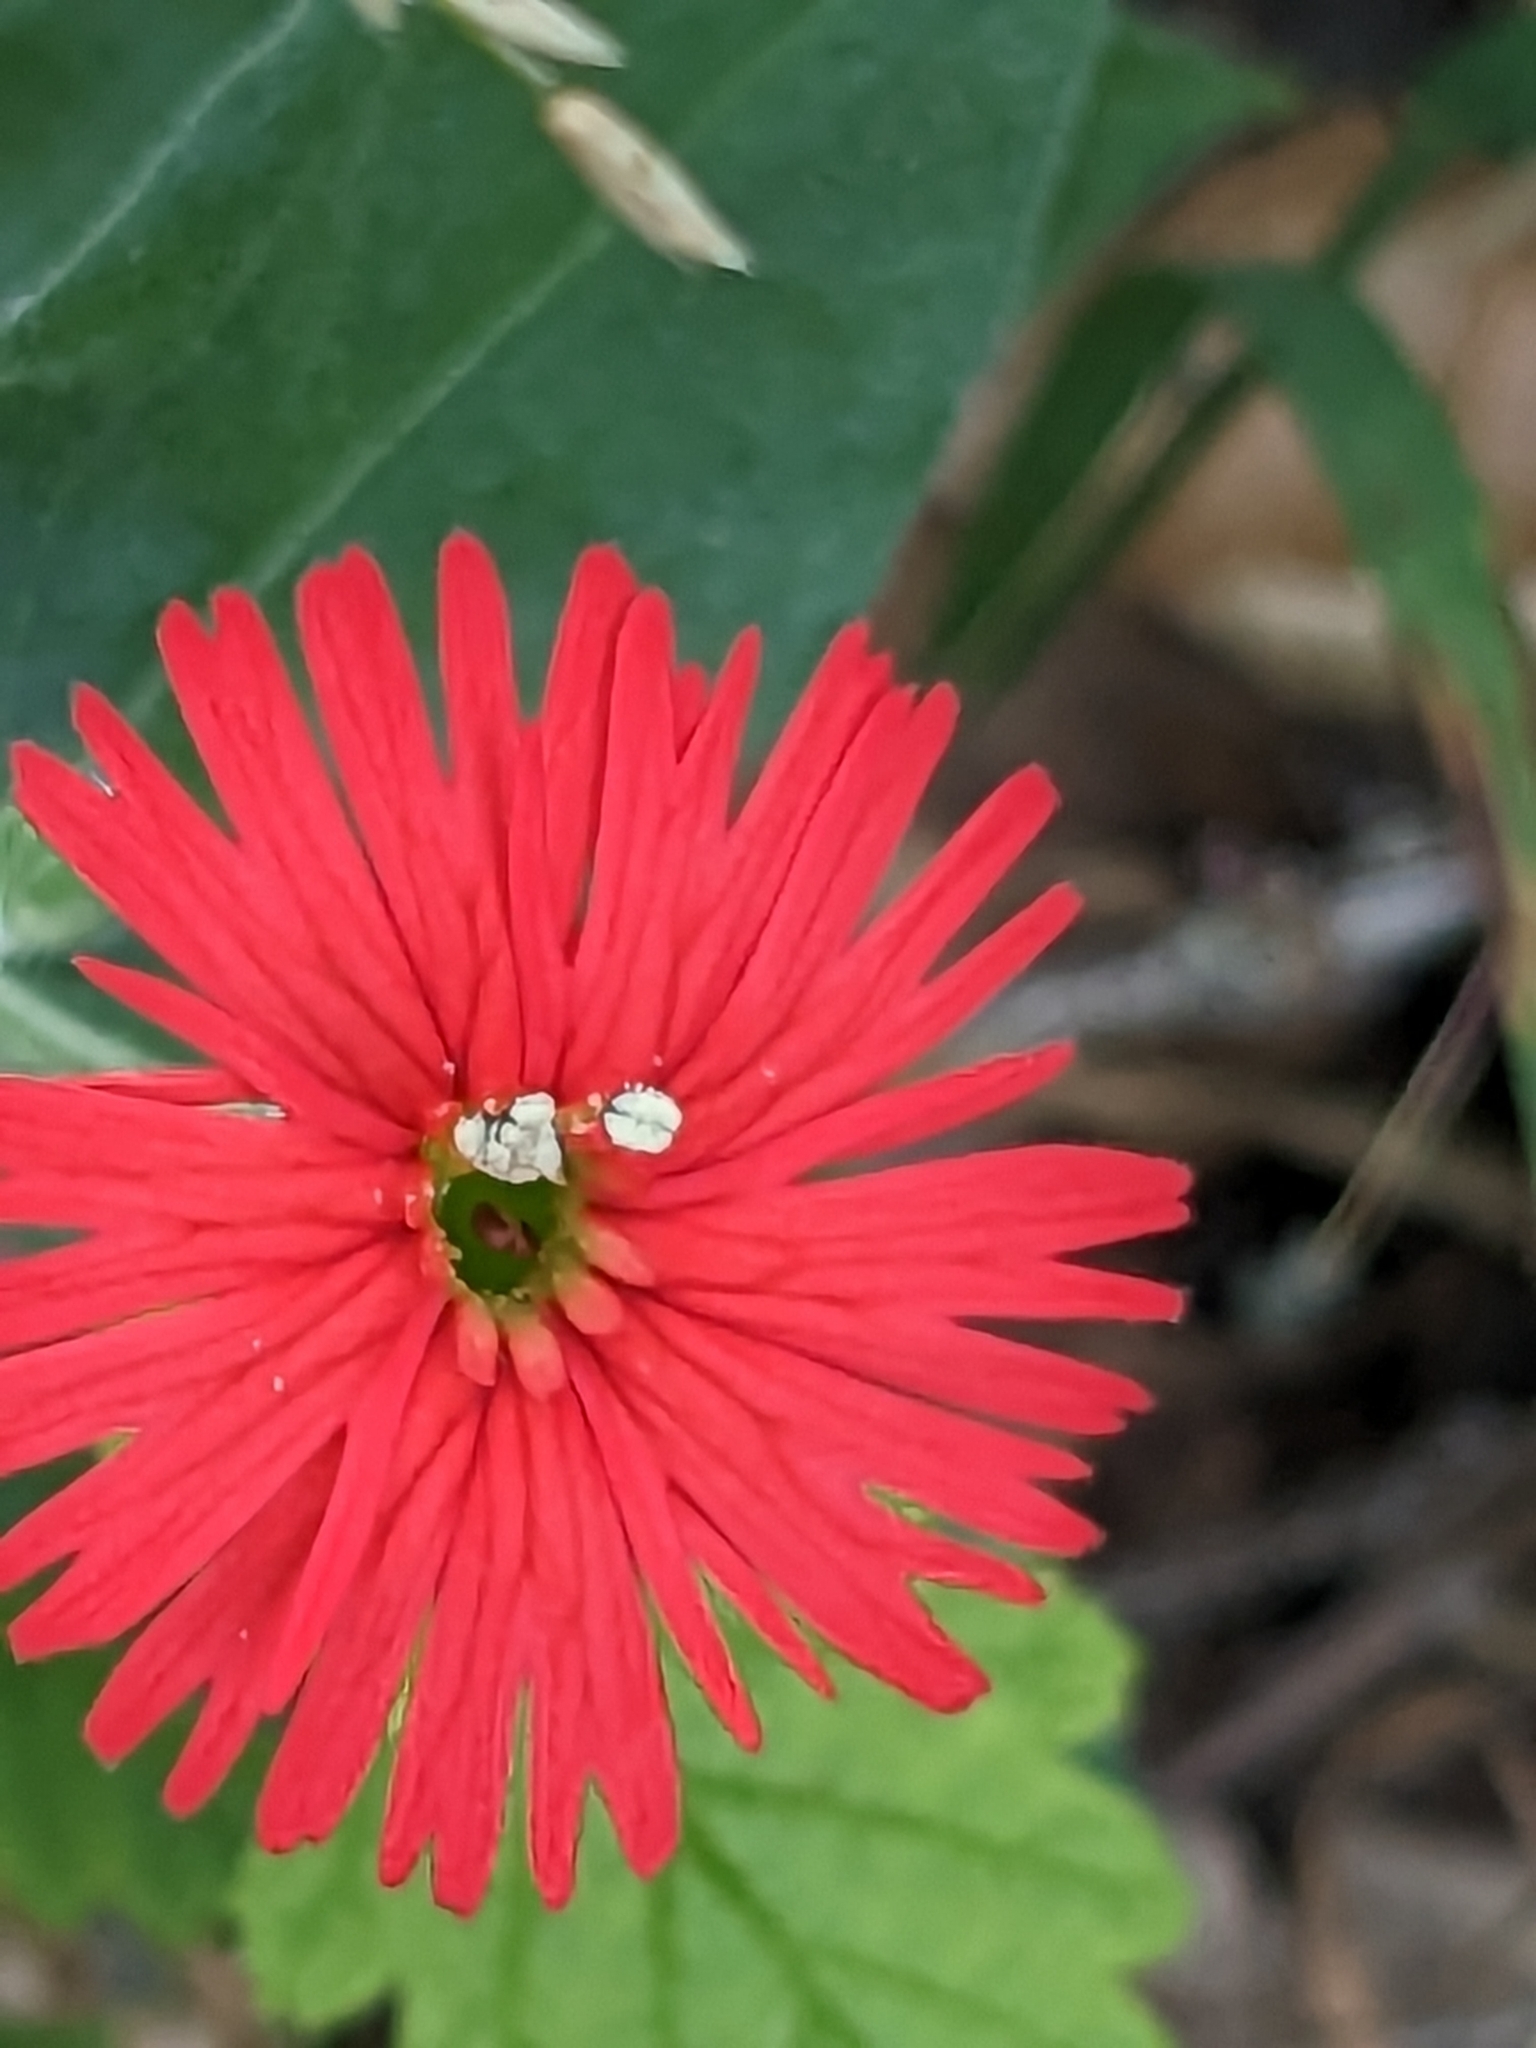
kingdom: Plantae
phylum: Tracheophyta
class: Magnoliopsida
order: Caryophyllales
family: Caryophyllaceae
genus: Silene
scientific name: Silene laciniata
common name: Indian-pink
